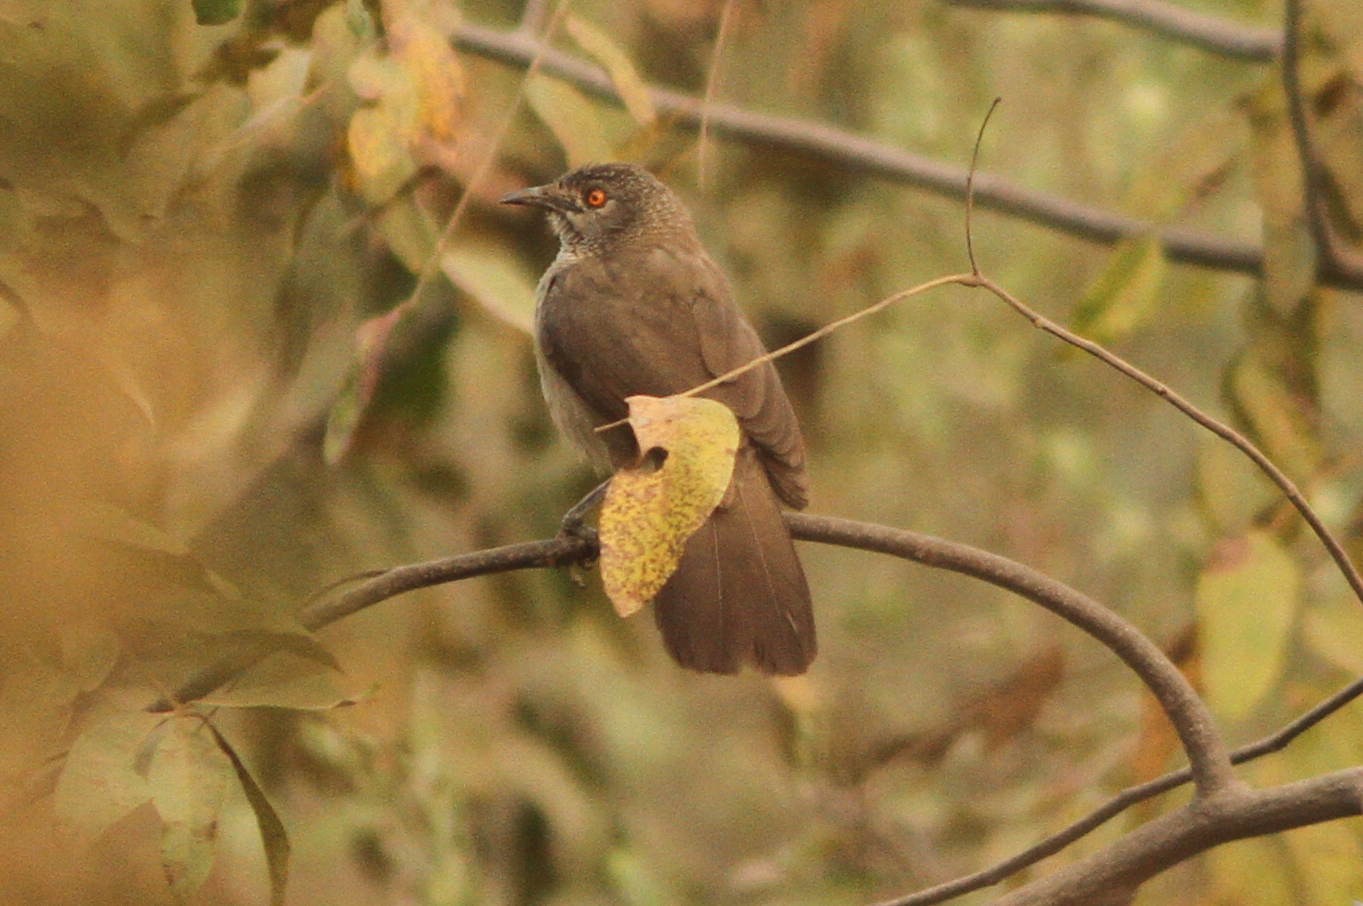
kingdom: Animalia
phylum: Chordata
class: Aves
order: Passeriformes
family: Leiothrichidae
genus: Turdoides
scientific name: Turdoides plebejus
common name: Brown babbler
